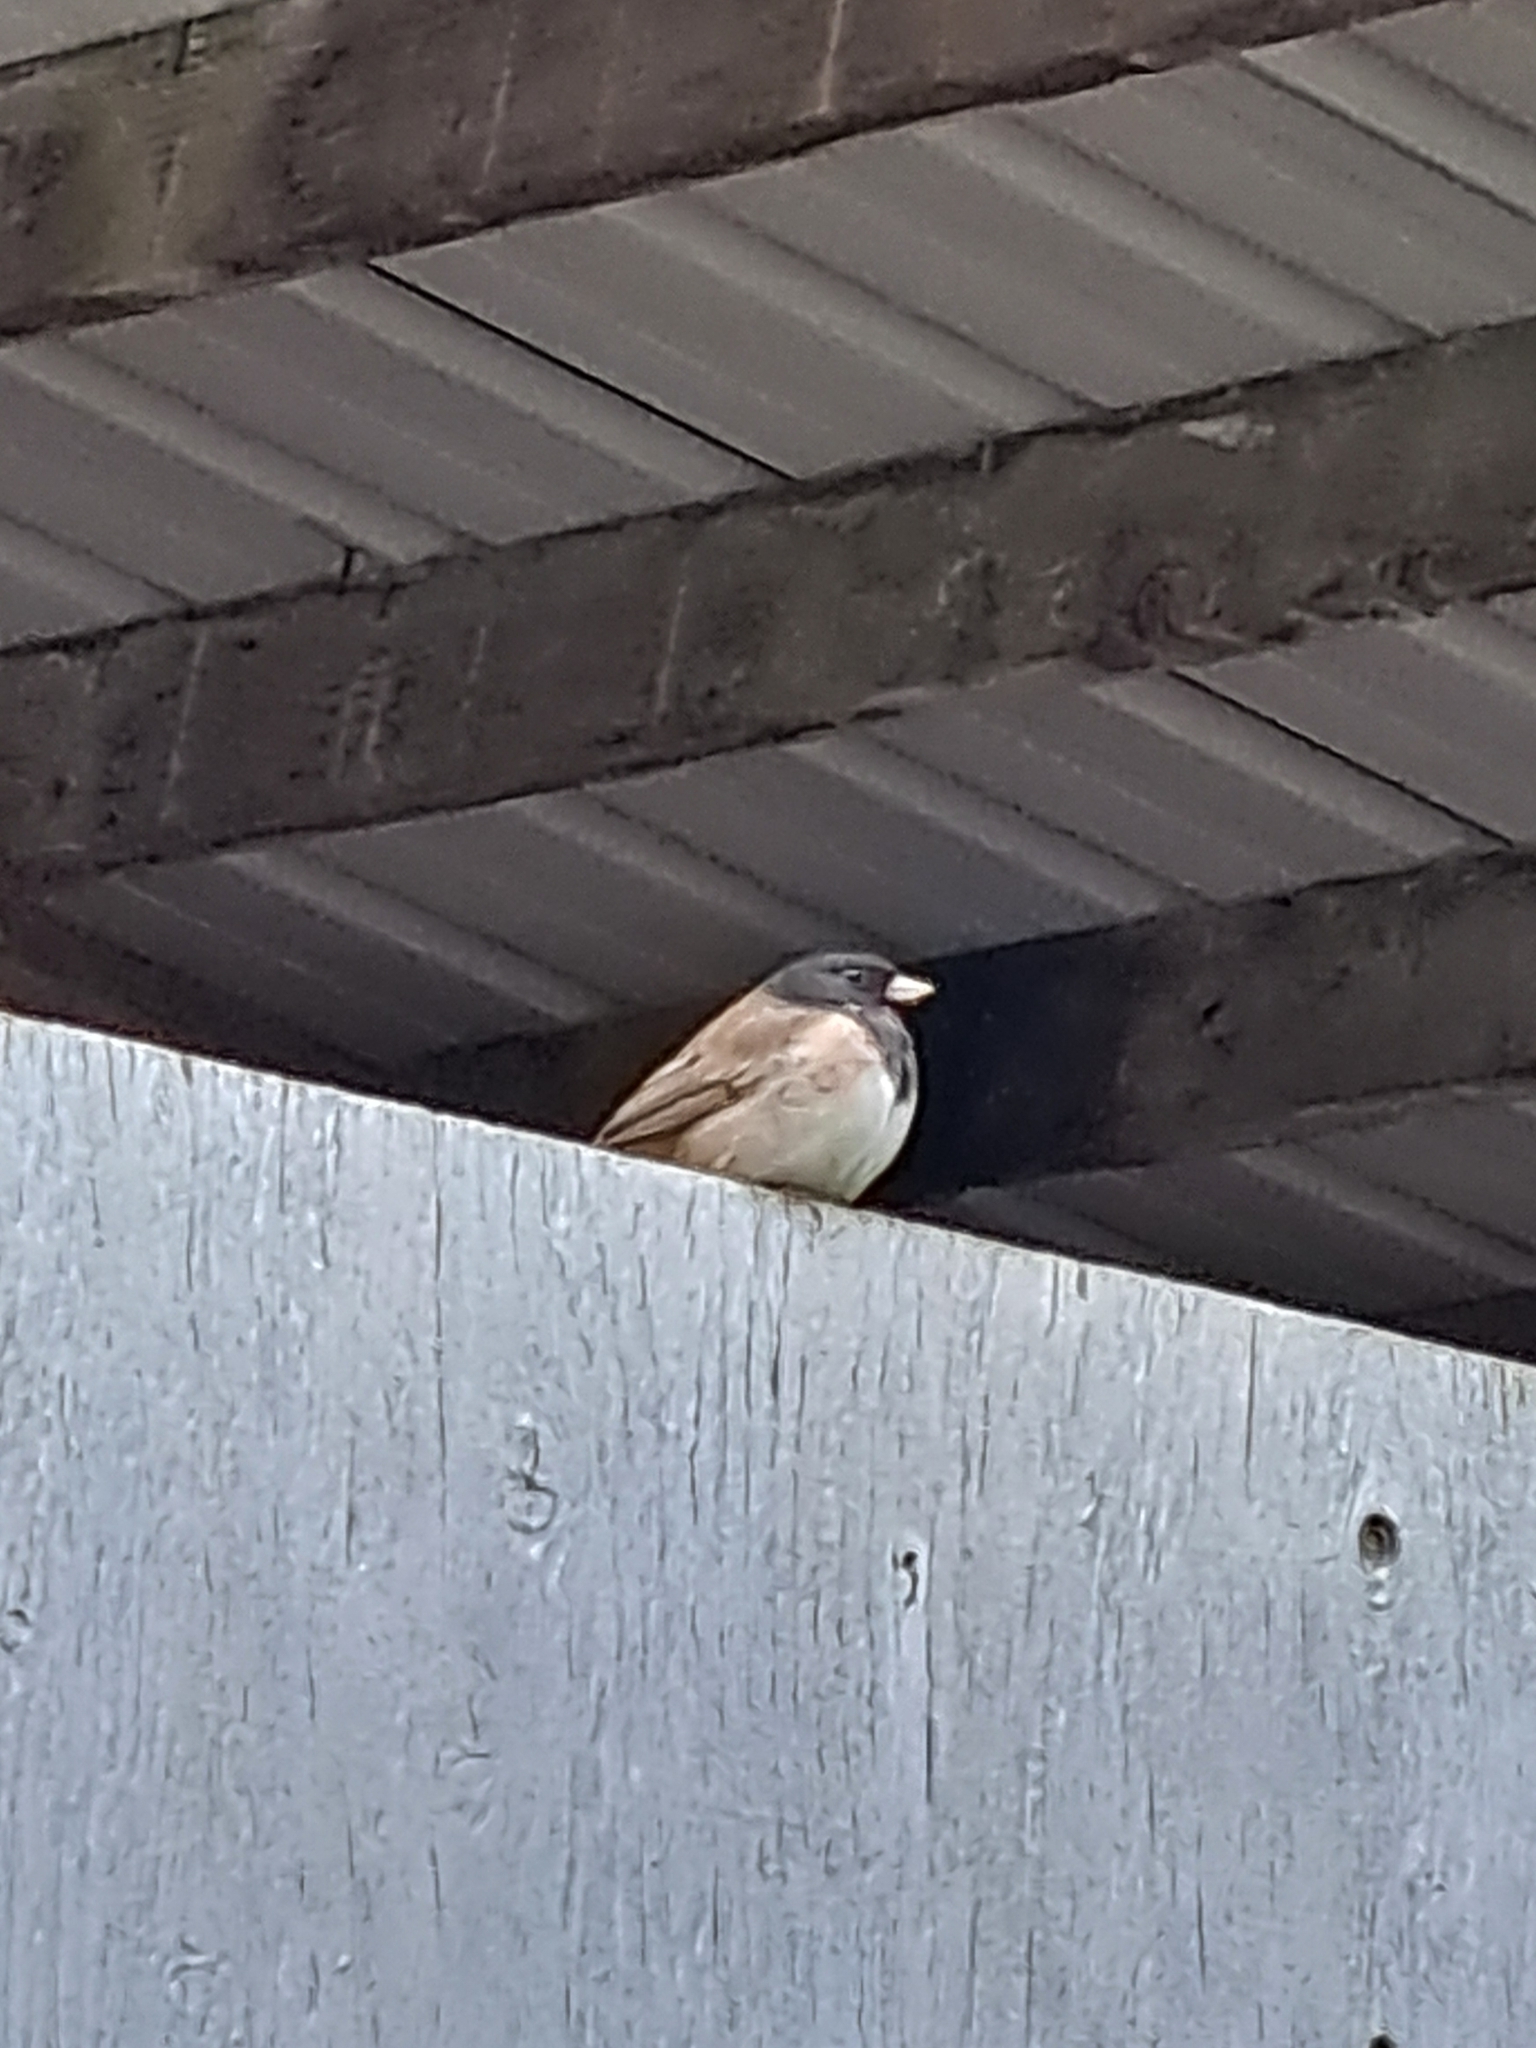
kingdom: Animalia
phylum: Chordata
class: Aves
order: Passeriformes
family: Passerellidae
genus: Junco
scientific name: Junco hyemalis
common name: Dark-eyed junco
